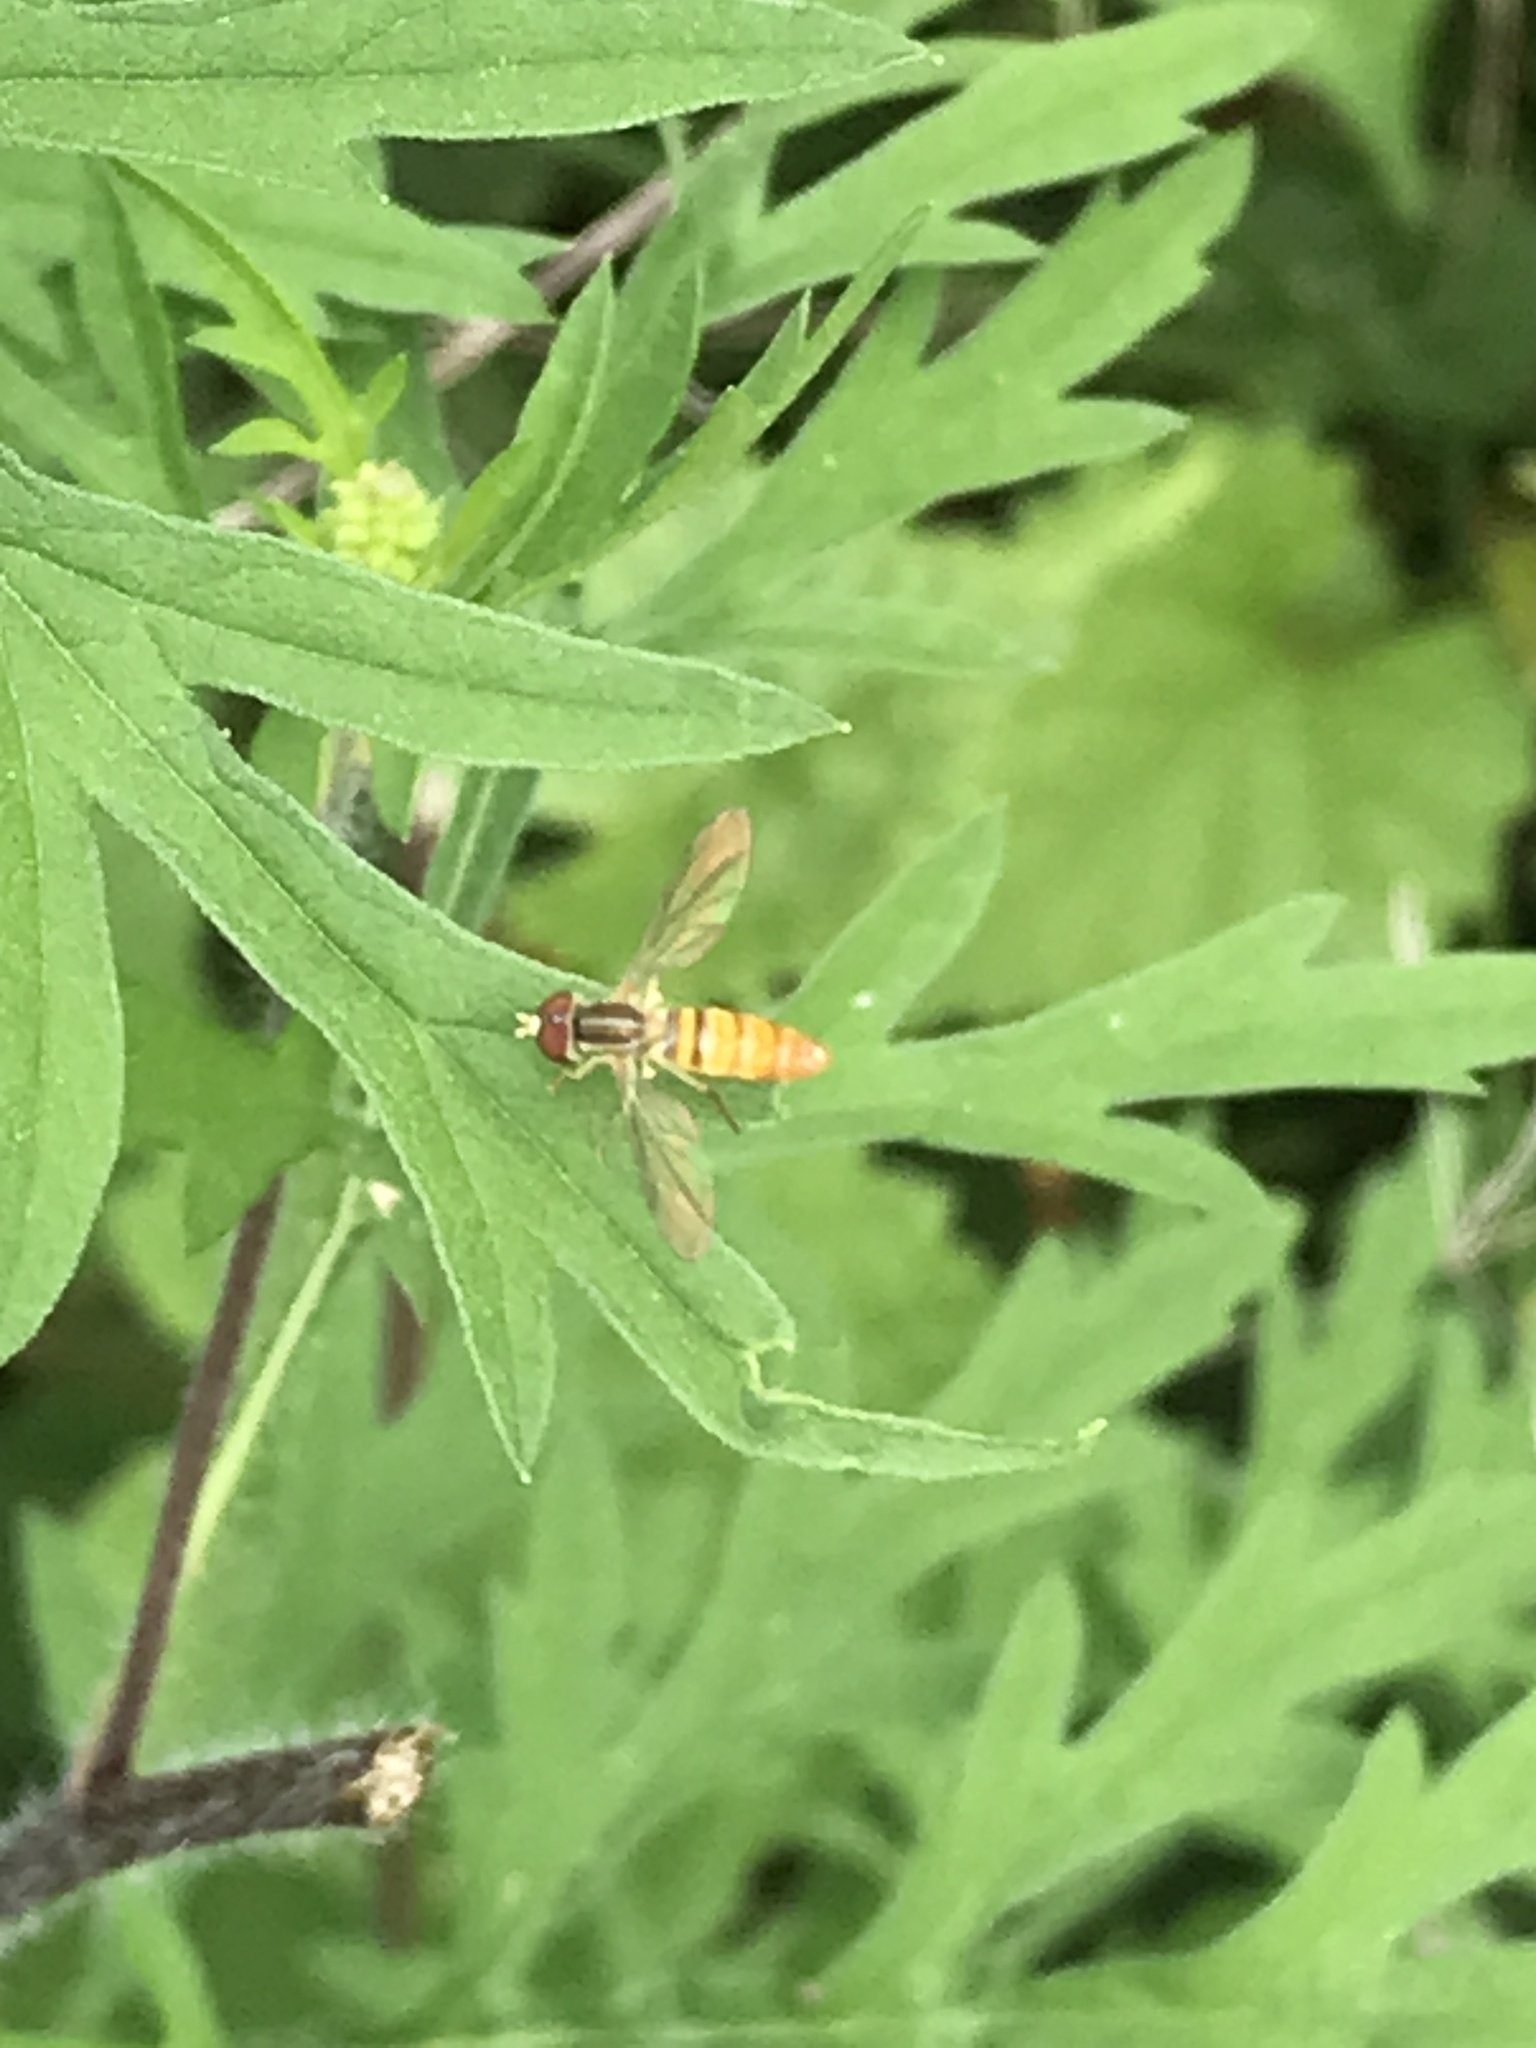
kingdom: Animalia
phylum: Arthropoda
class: Insecta
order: Diptera
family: Syrphidae
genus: Toxomerus
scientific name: Toxomerus politus
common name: Maize calligrapher
